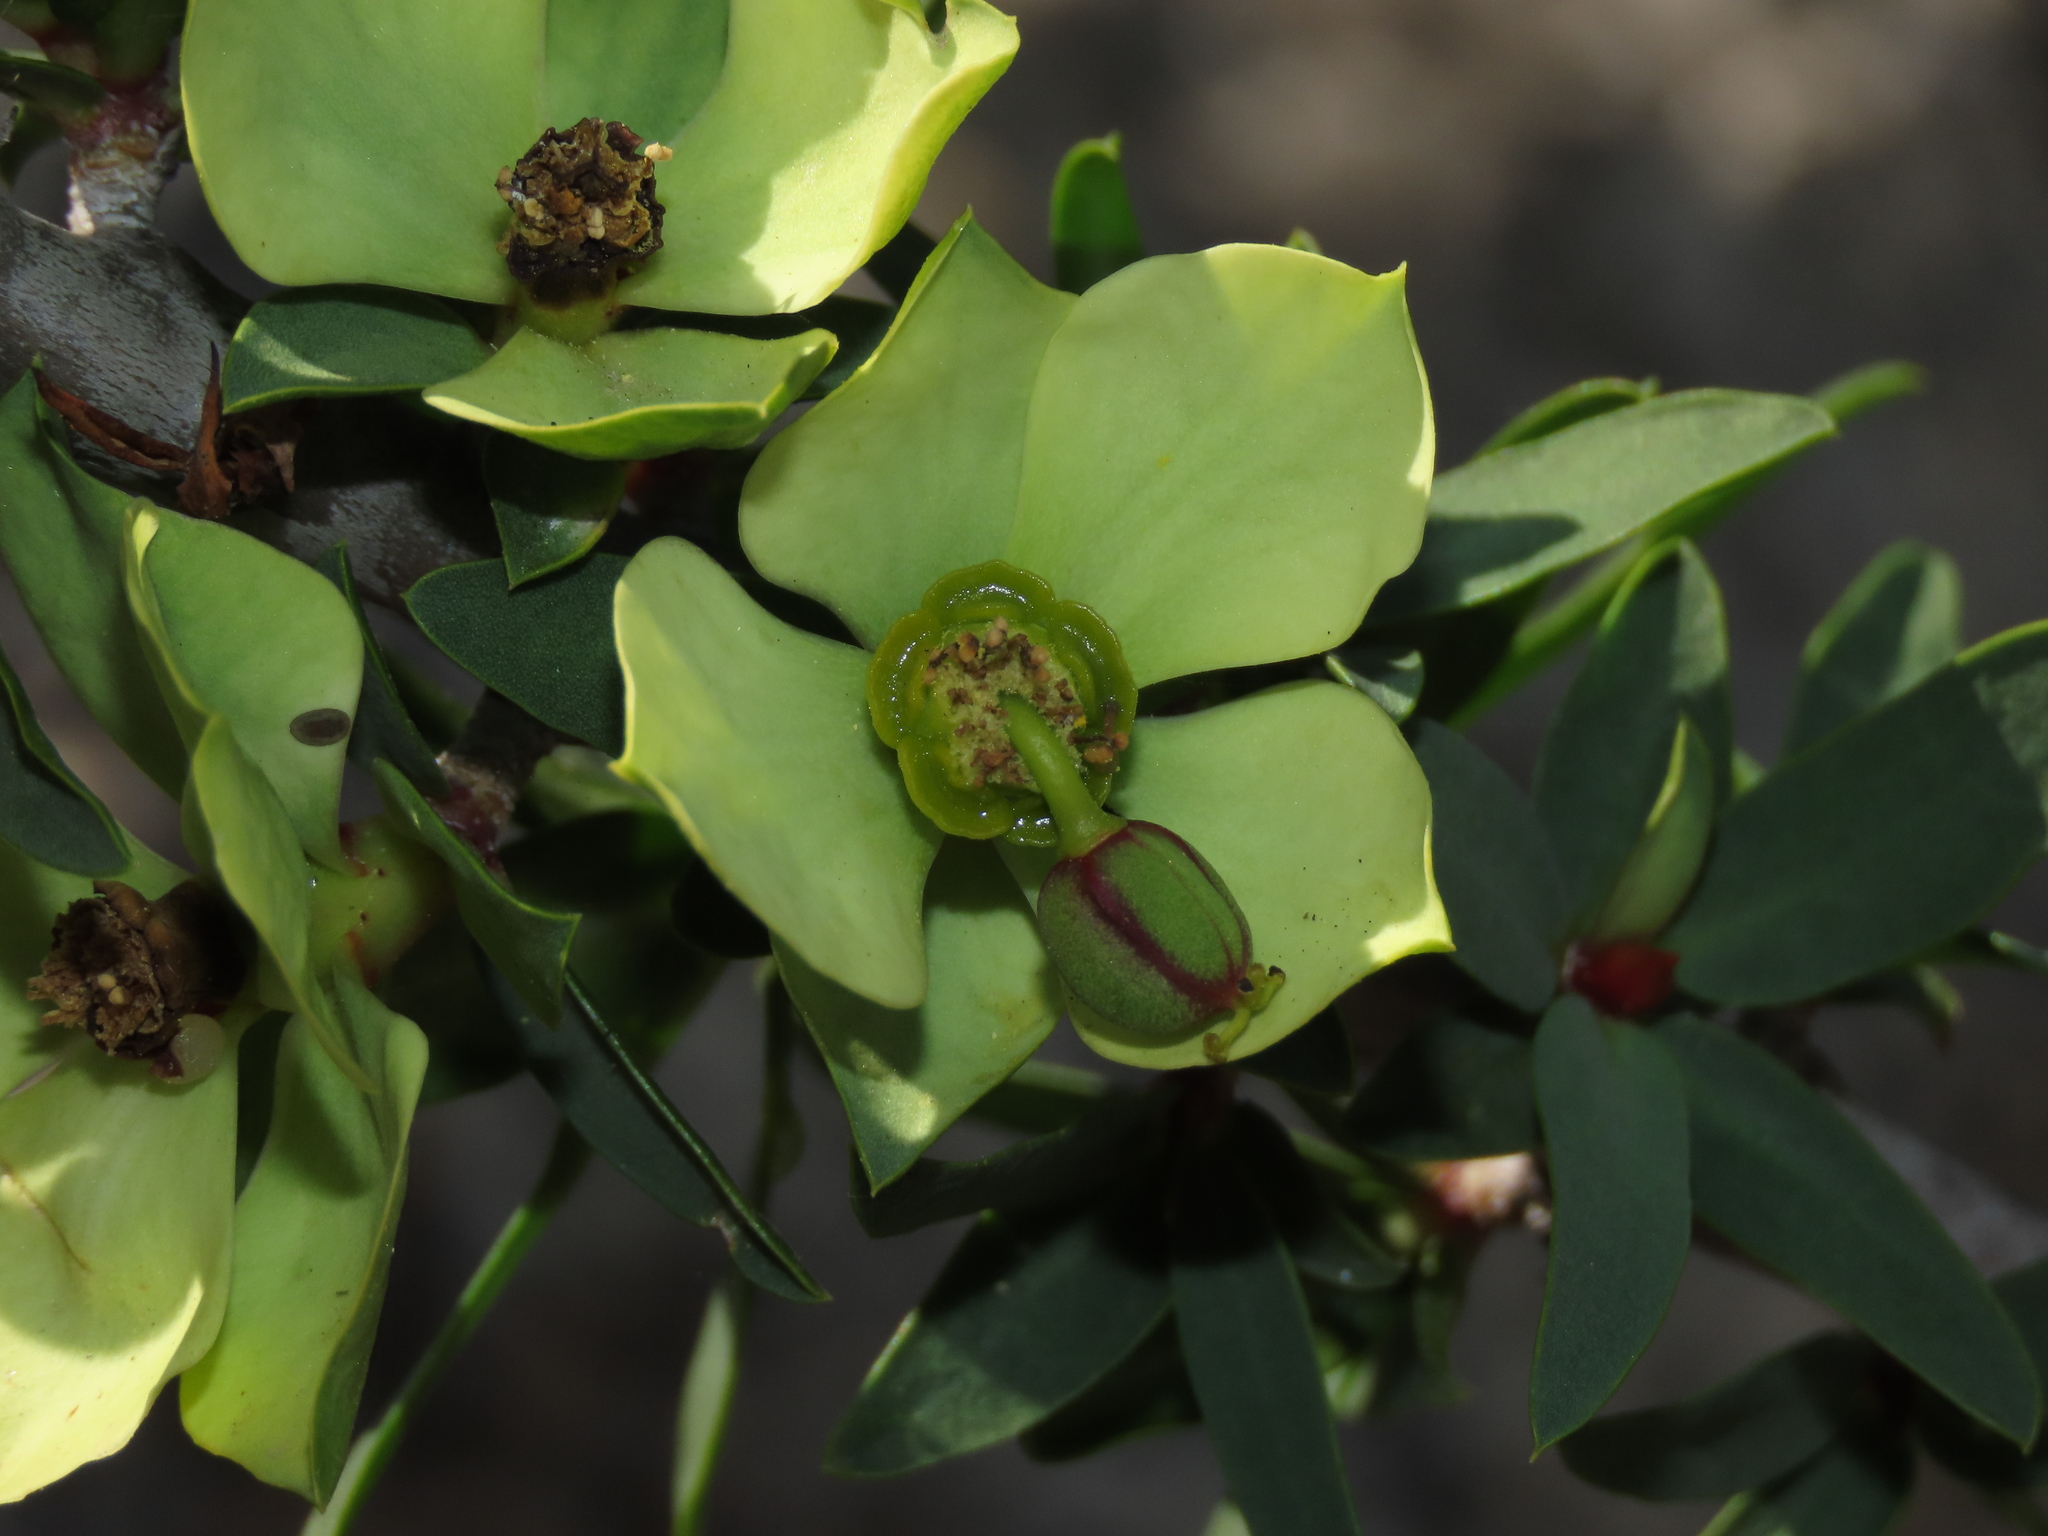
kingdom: Plantae
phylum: Tracheophyta
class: Magnoliopsida
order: Malpighiales
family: Euphorbiaceae
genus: Euphorbia
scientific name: Euphorbia lactiflua
